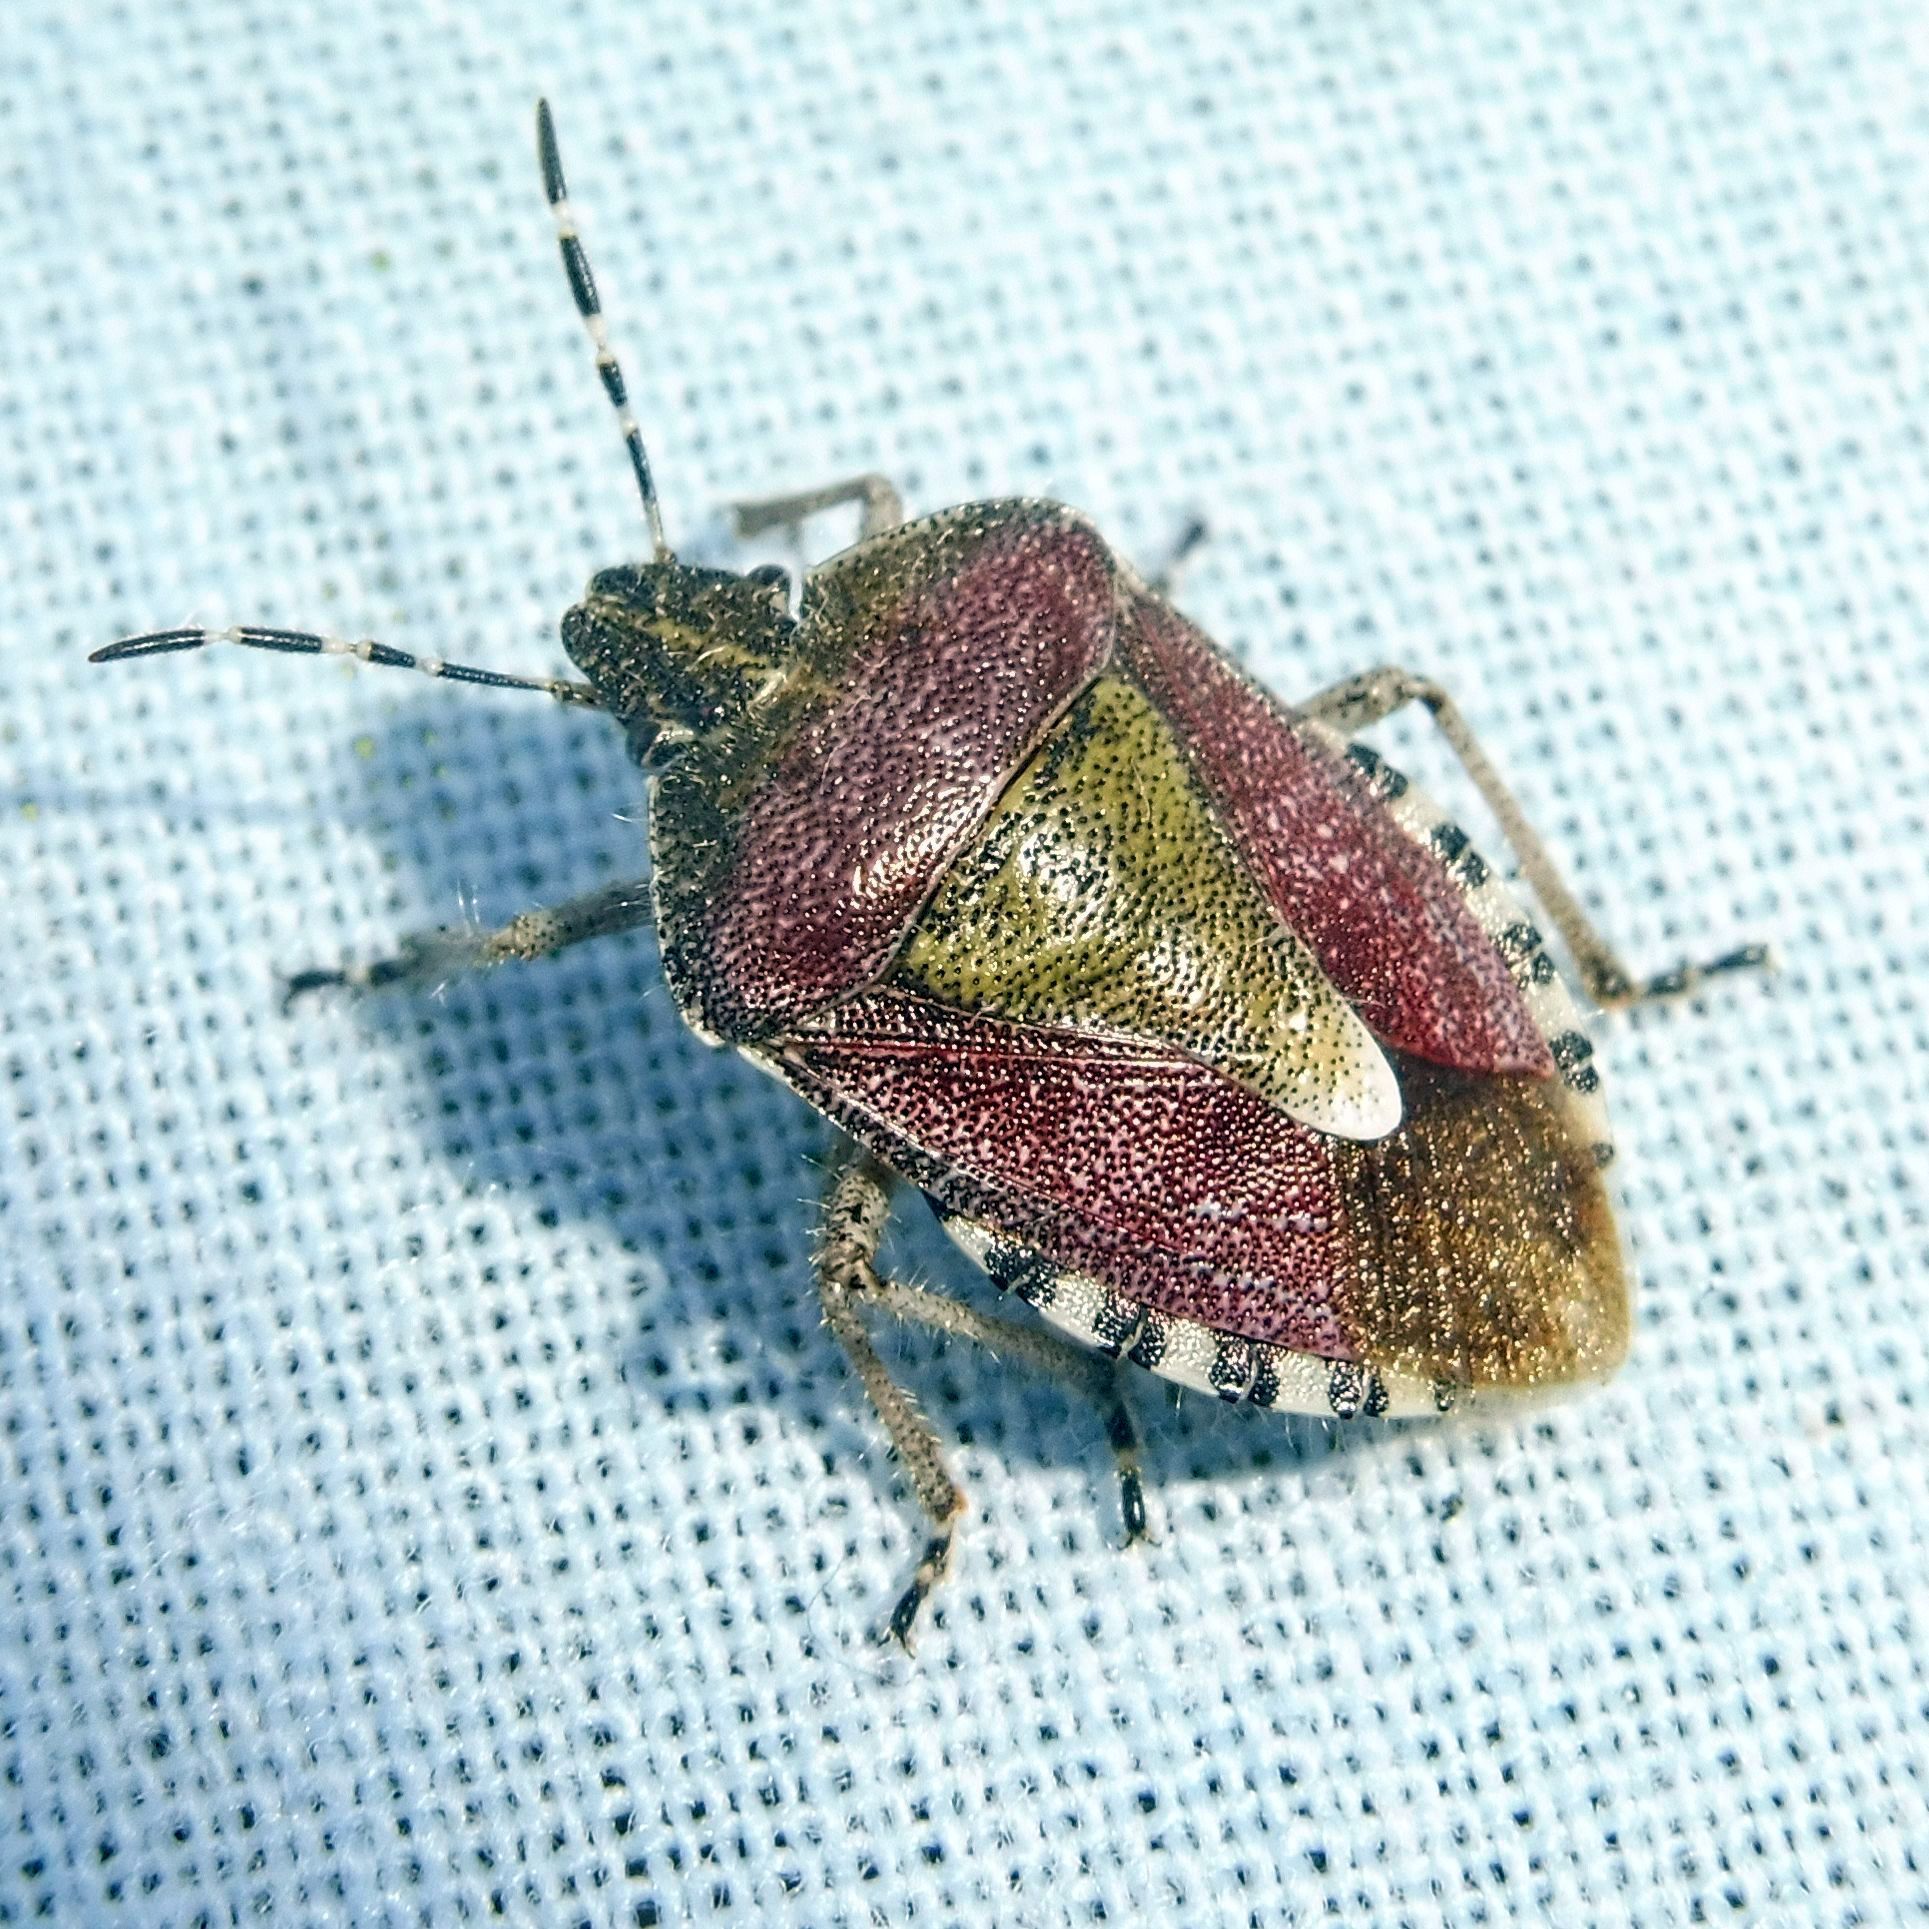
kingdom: Animalia
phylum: Arthropoda
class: Insecta
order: Hemiptera
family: Pentatomidae
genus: Dolycoris
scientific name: Dolycoris baccarum
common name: Sloe bug
